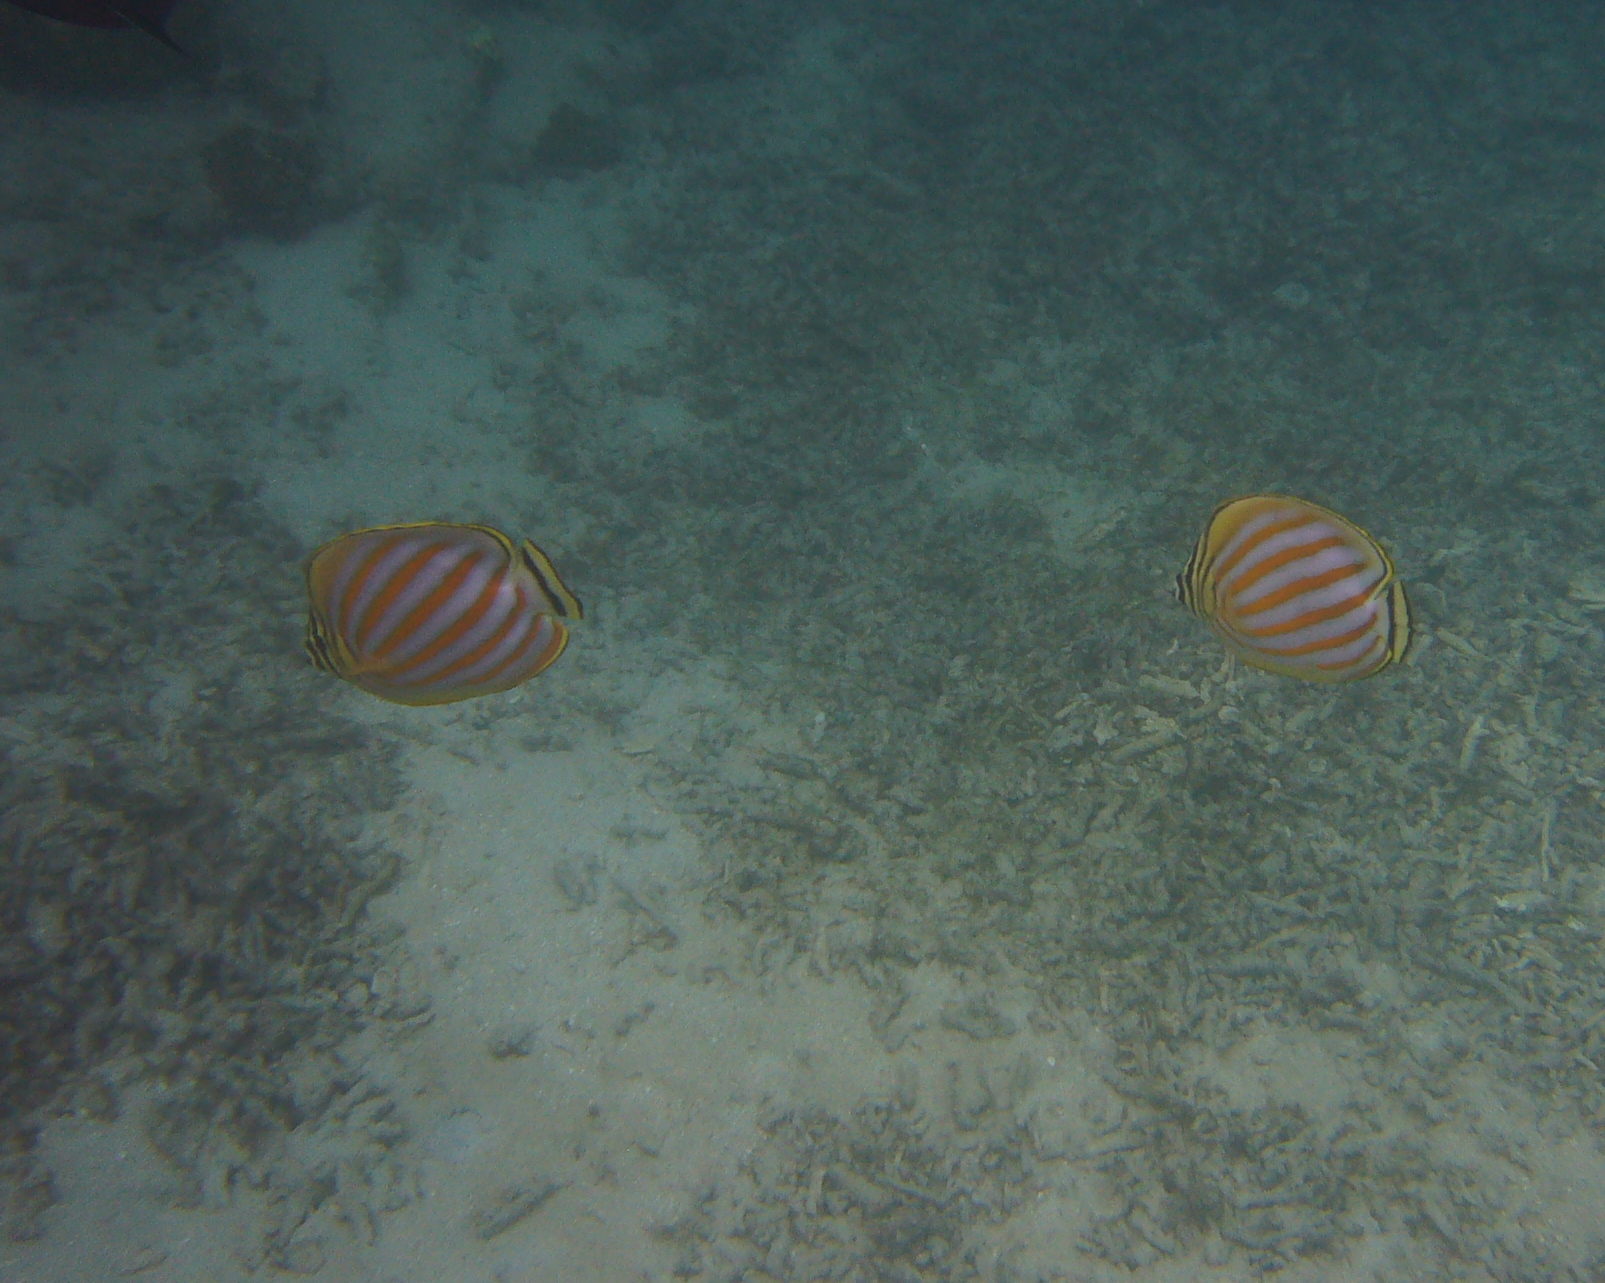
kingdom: Animalia
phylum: Chordata
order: Perciformes
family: Chaetodontidae
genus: Chaetodon
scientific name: Chaetodon ornatissimus
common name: Ornate butterflyfish
